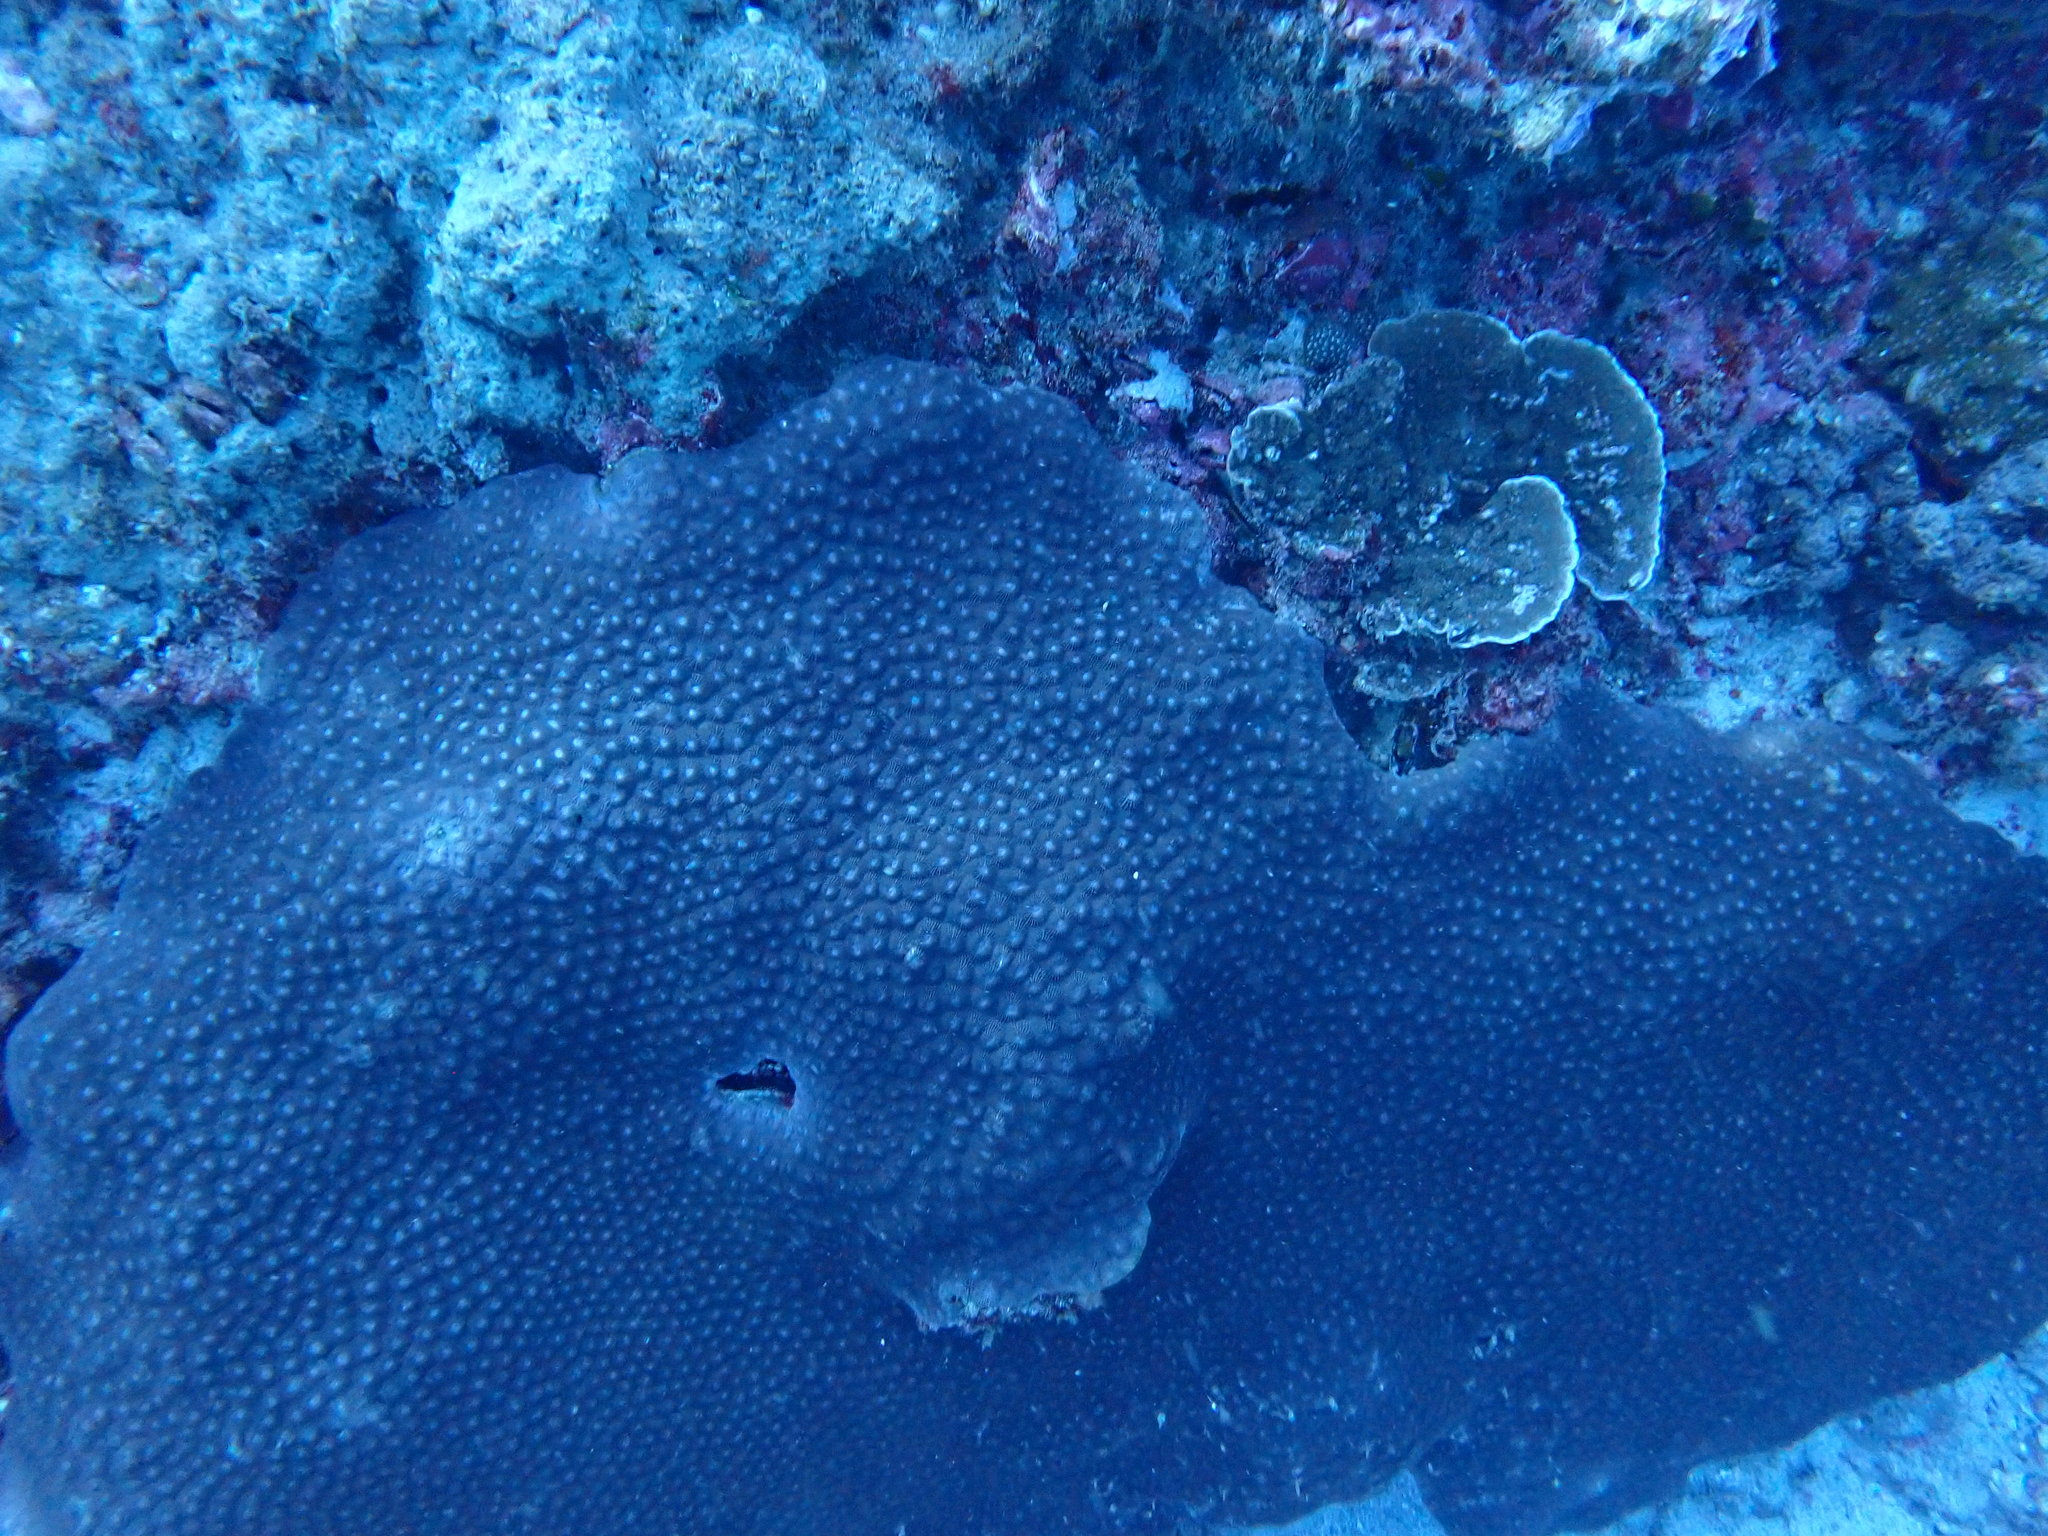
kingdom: Animalia
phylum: Cnidaria
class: Anthozoa
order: Scleractinia
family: Diploastraeidae
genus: Diploastrea
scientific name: Diploastrea heliopora
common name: Double-star coral
